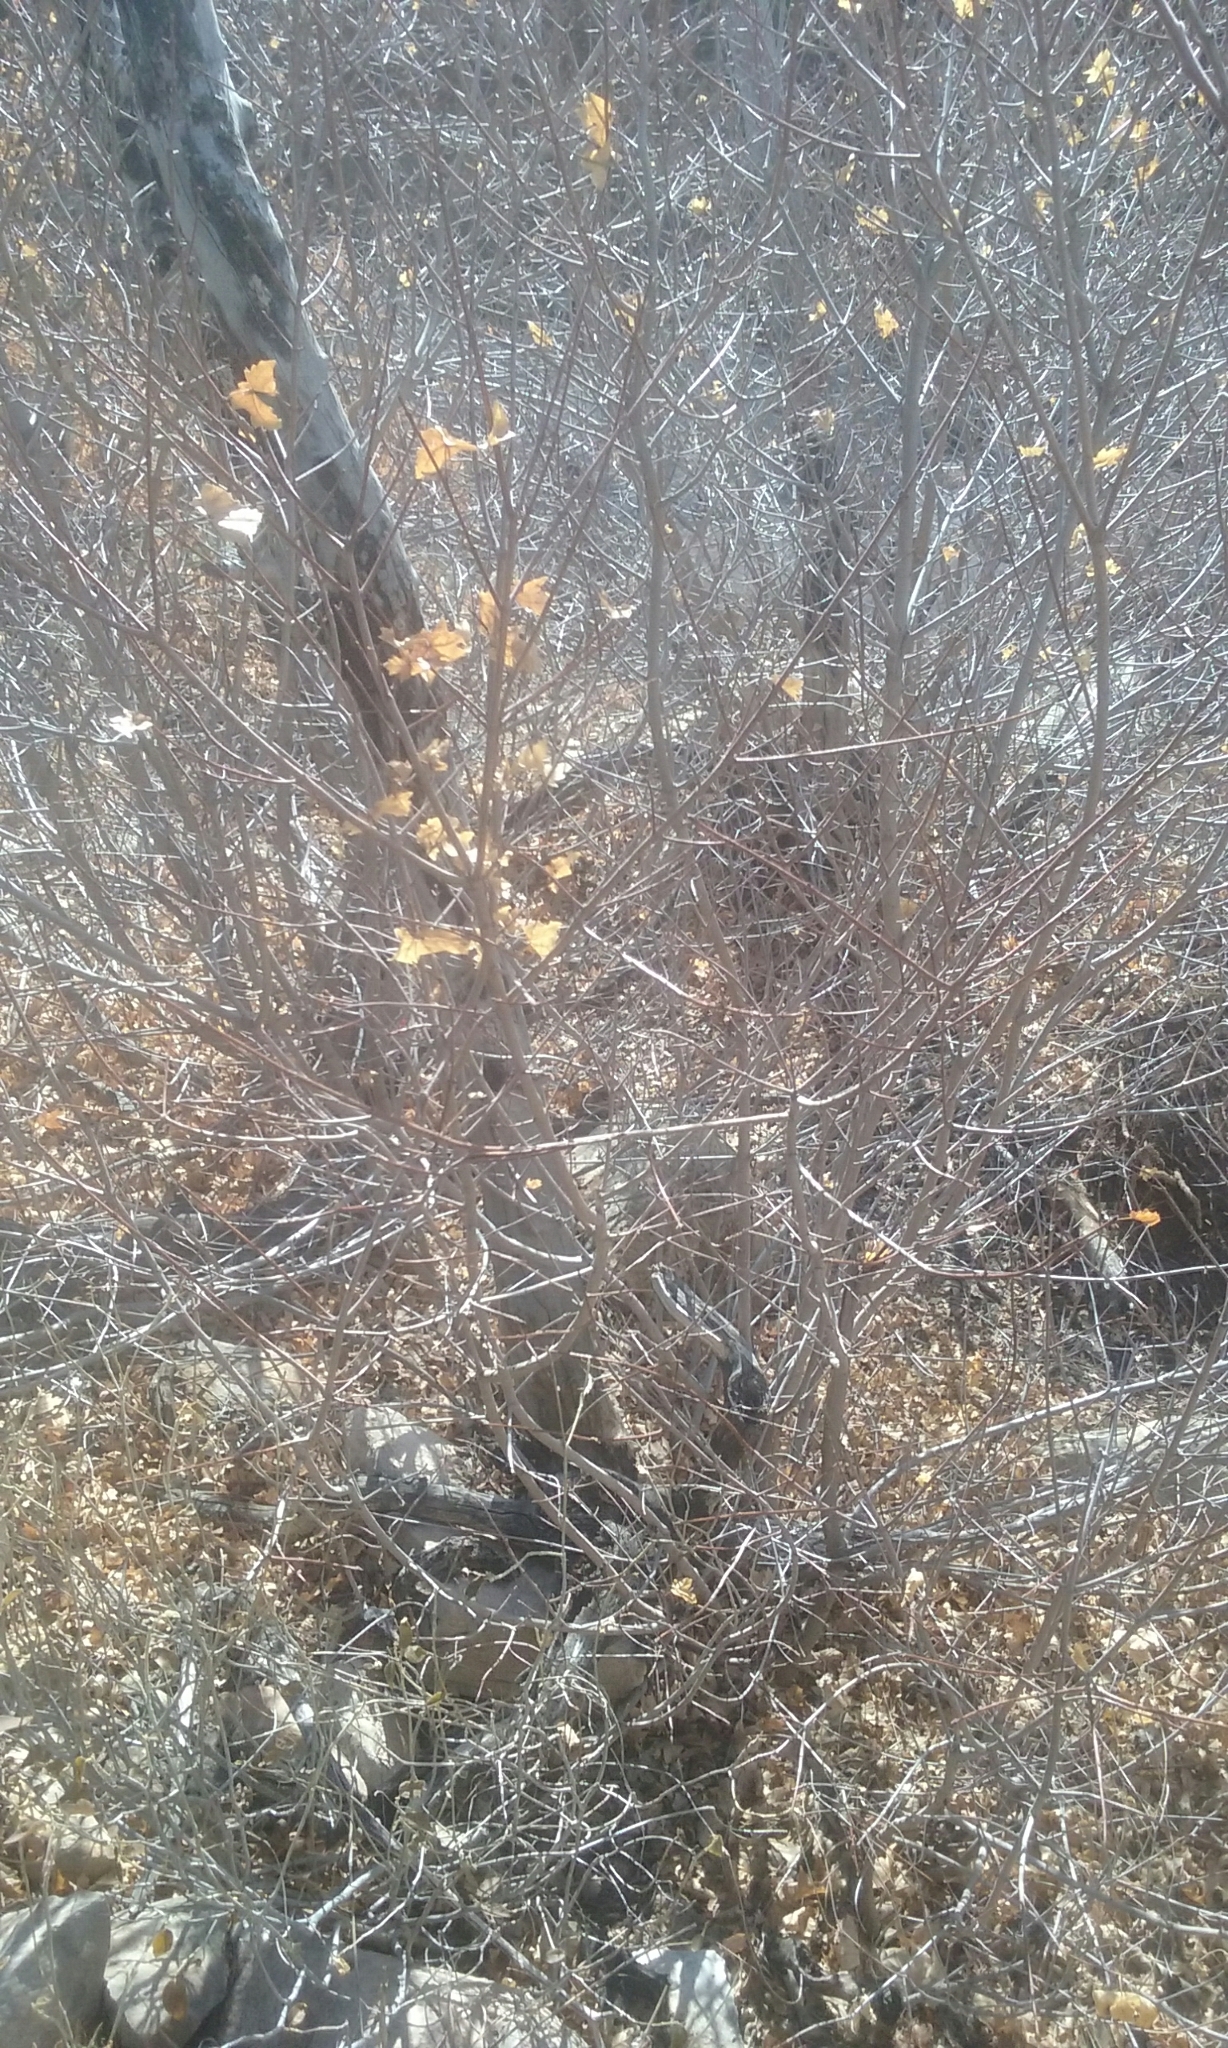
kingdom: Plantae
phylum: Tracheophyta
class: Magnoliopsida
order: Sapindales
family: Sapindaceae
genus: Acer
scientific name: Acer grandidentatum
